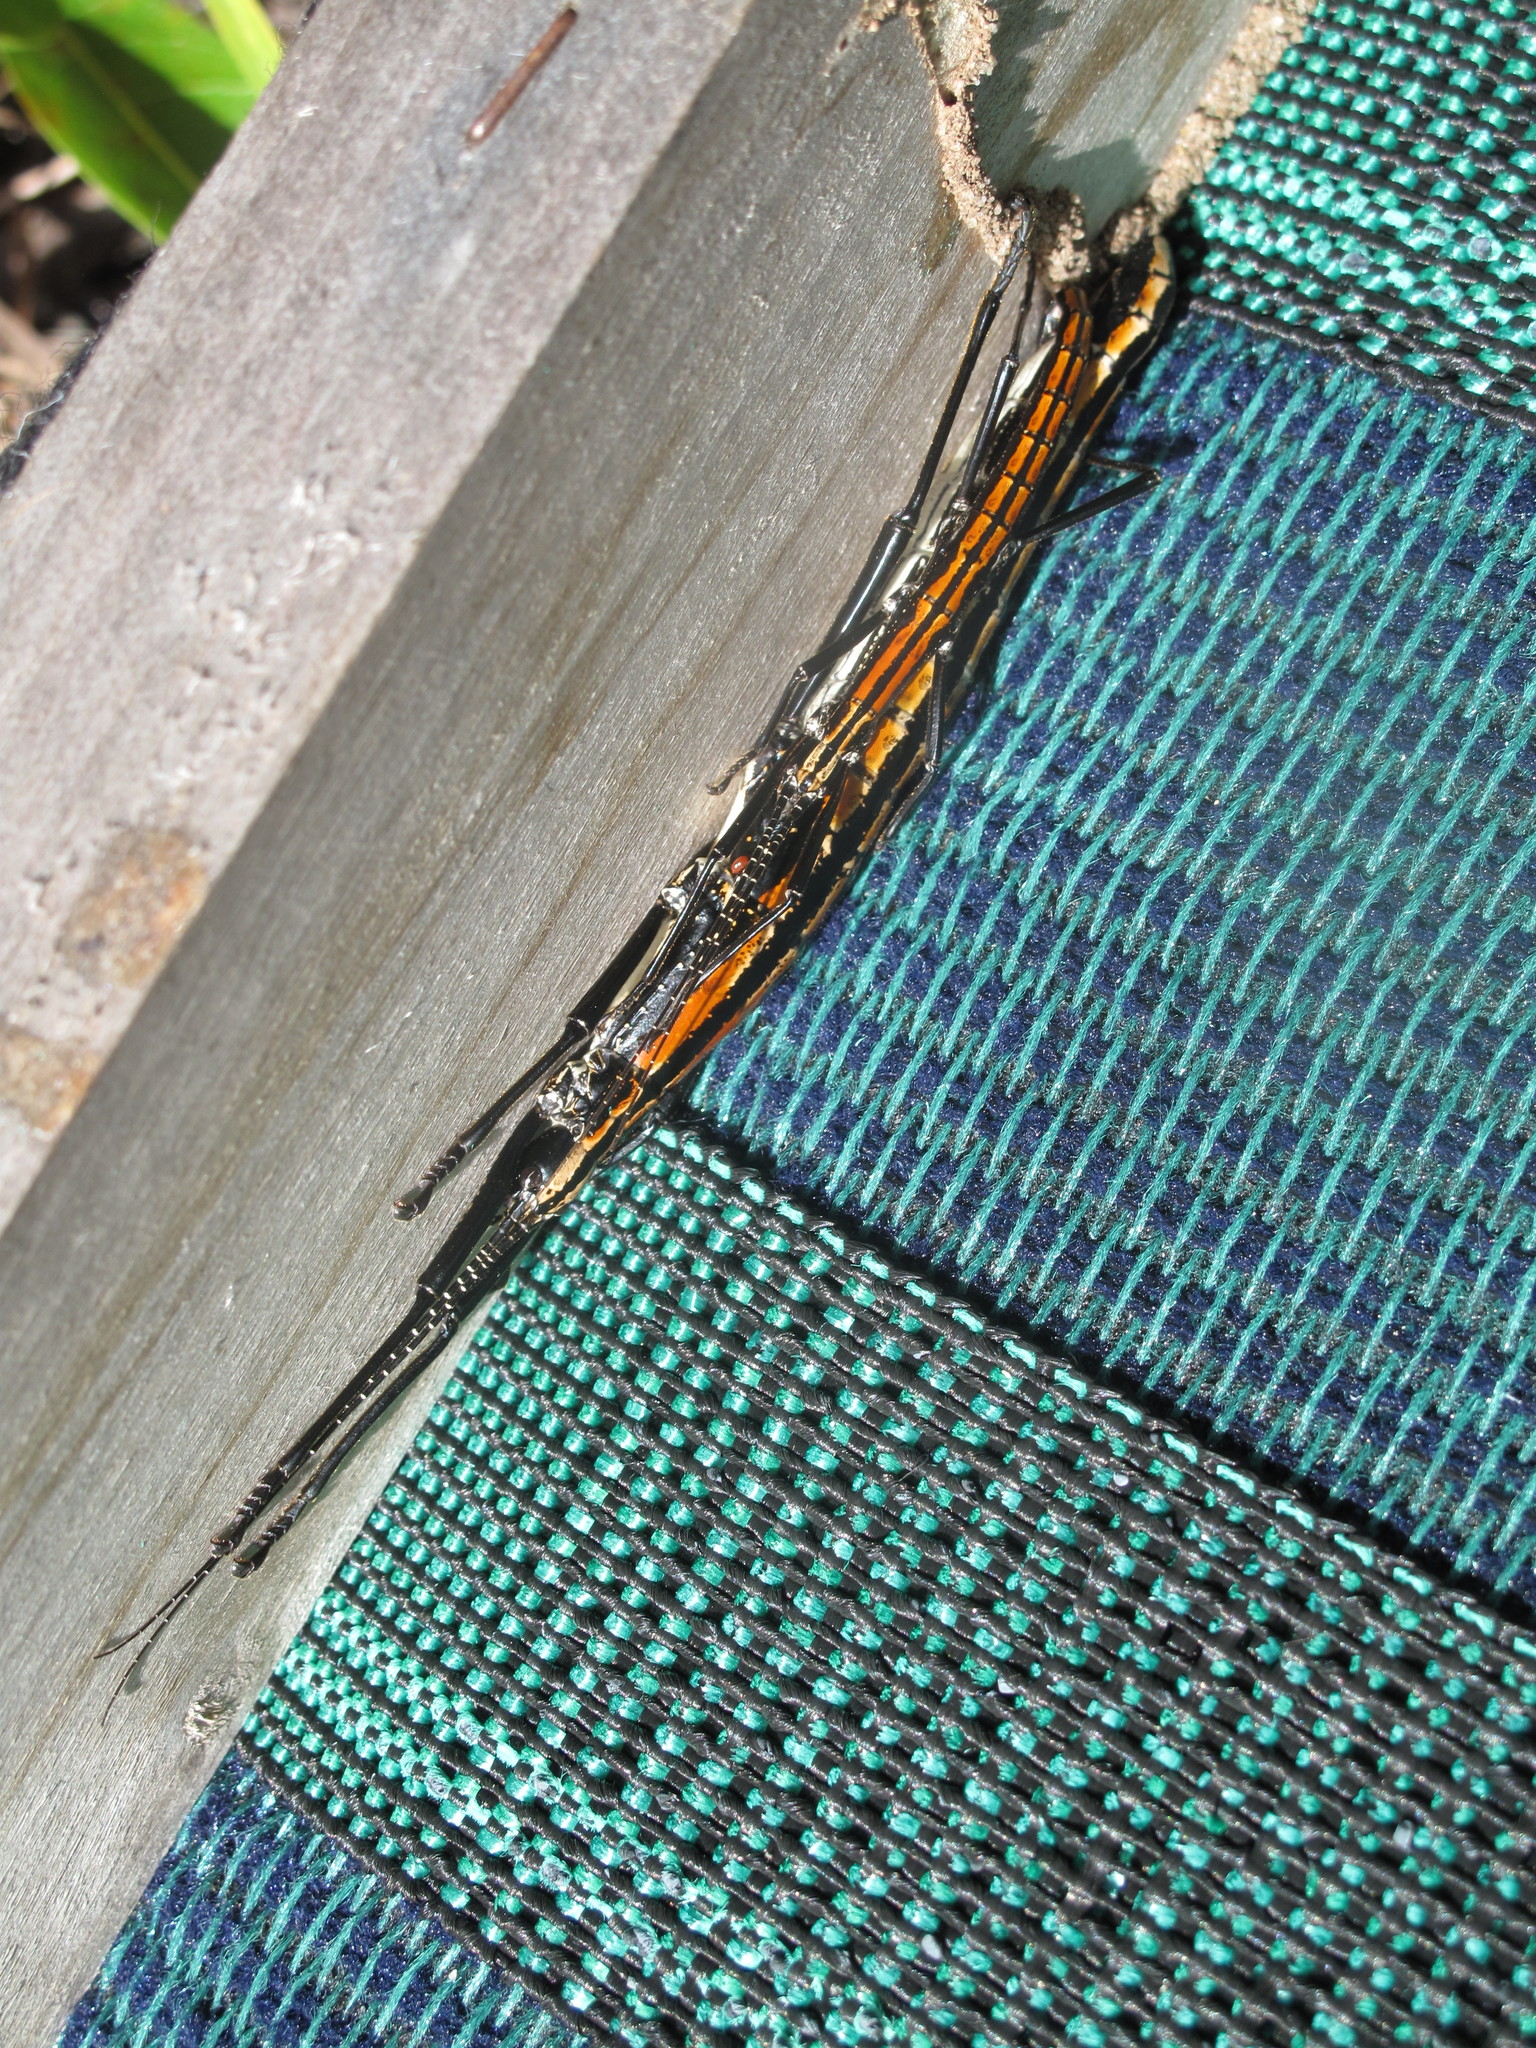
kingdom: Animalia
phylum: Arthropoda
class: Insecta
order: Phasmida
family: Pseudophasmatidae
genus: Anisomorpha
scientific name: Anisomorpha buprestoides
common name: Florida stick insect
